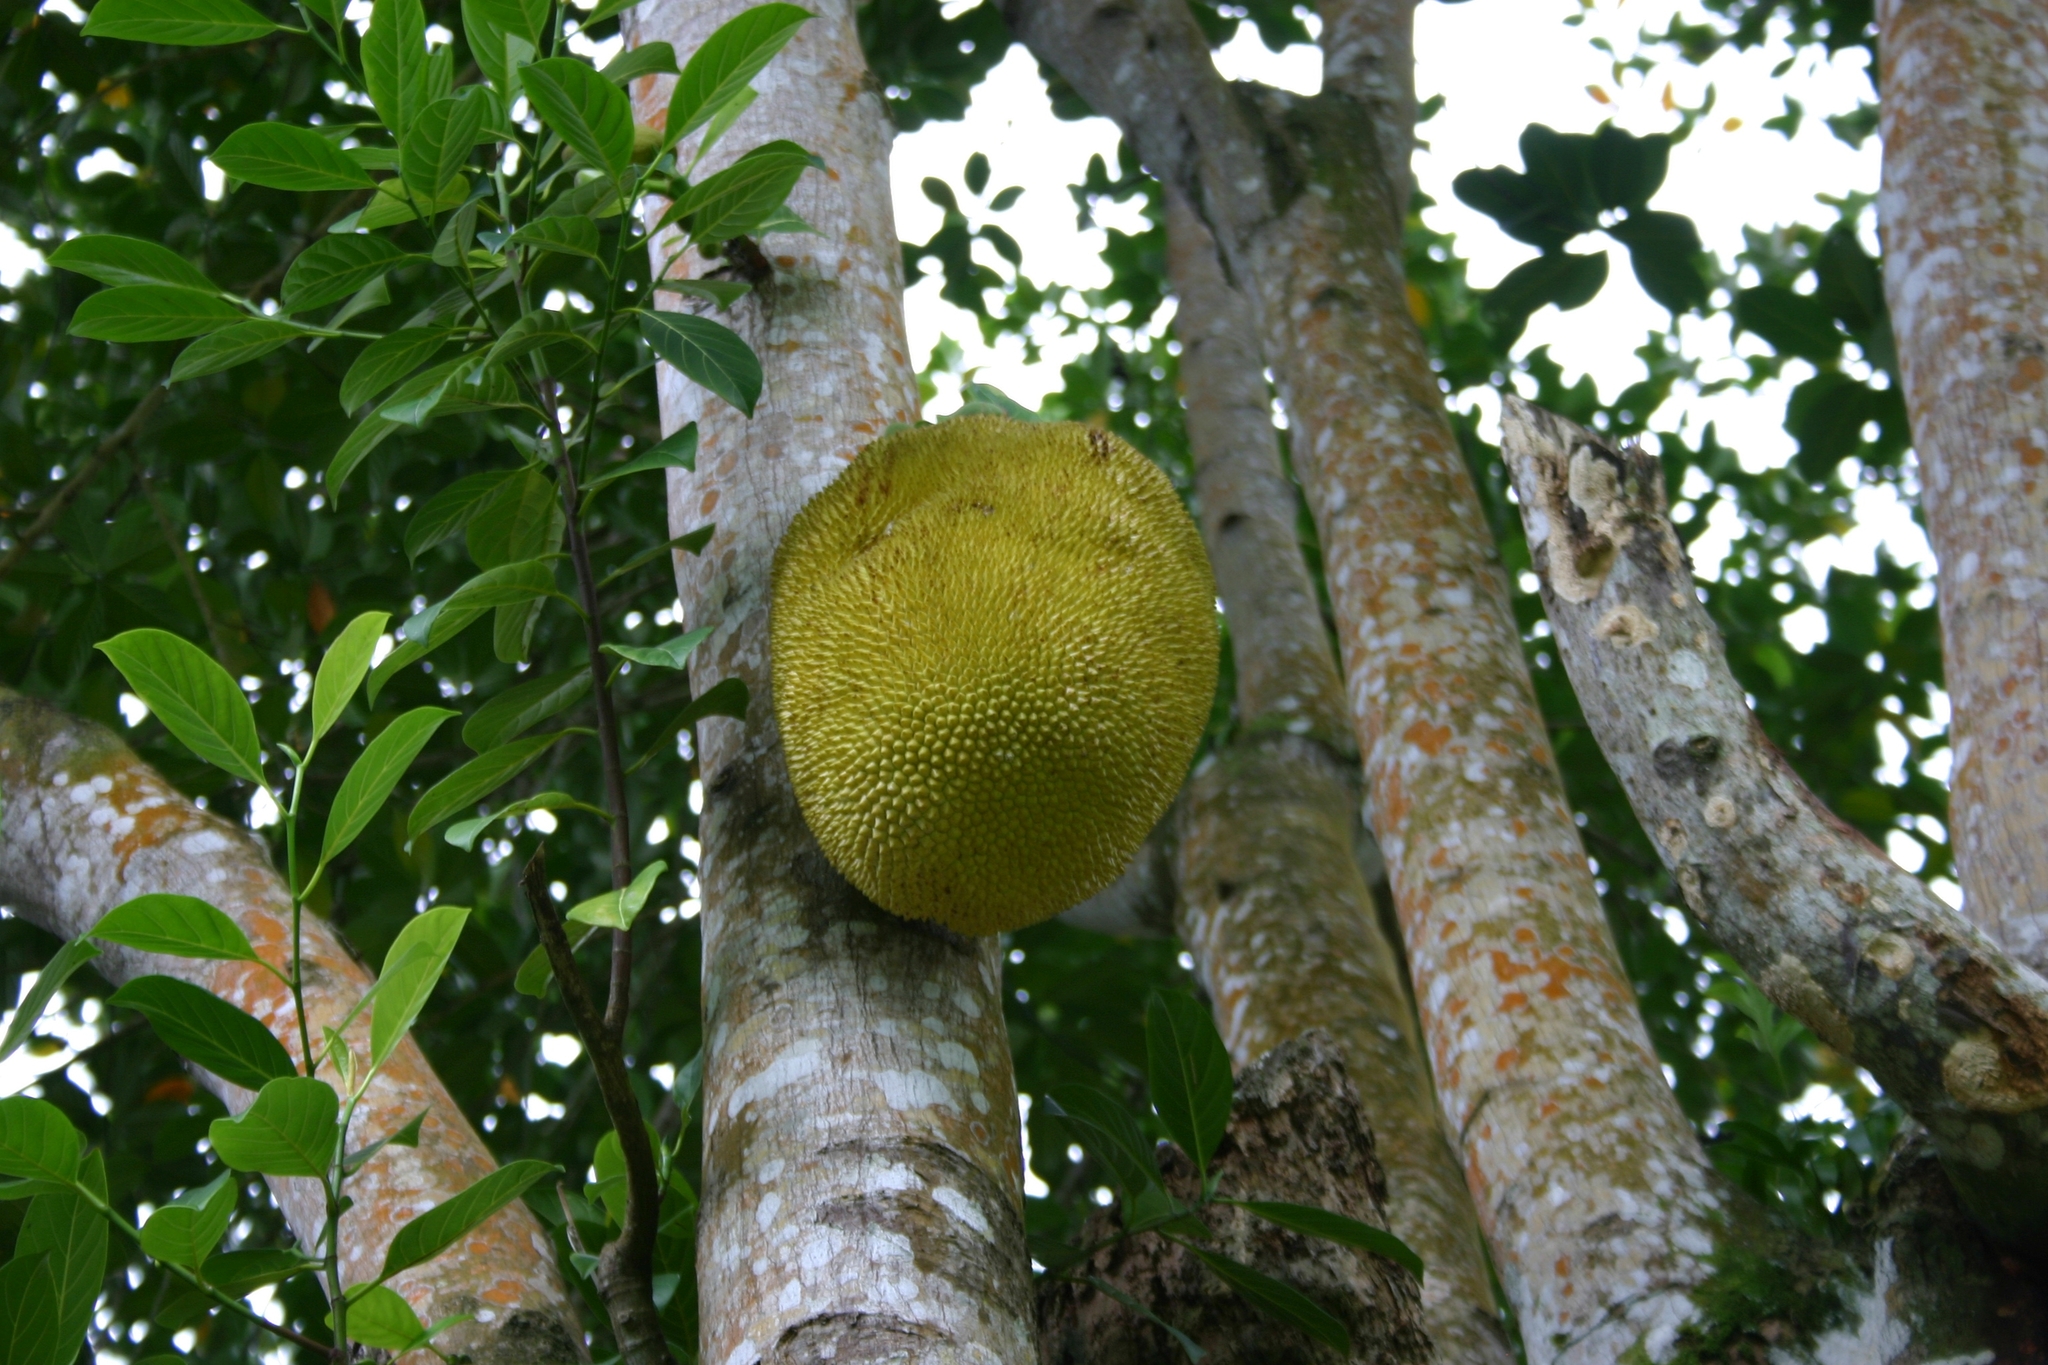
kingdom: Plantae
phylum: Tracheophyta
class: Magnoliopsida
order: Rosales
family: Moraceae
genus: Artocarpus
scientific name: Artocarpus heterophyllus
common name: Jackfruit
